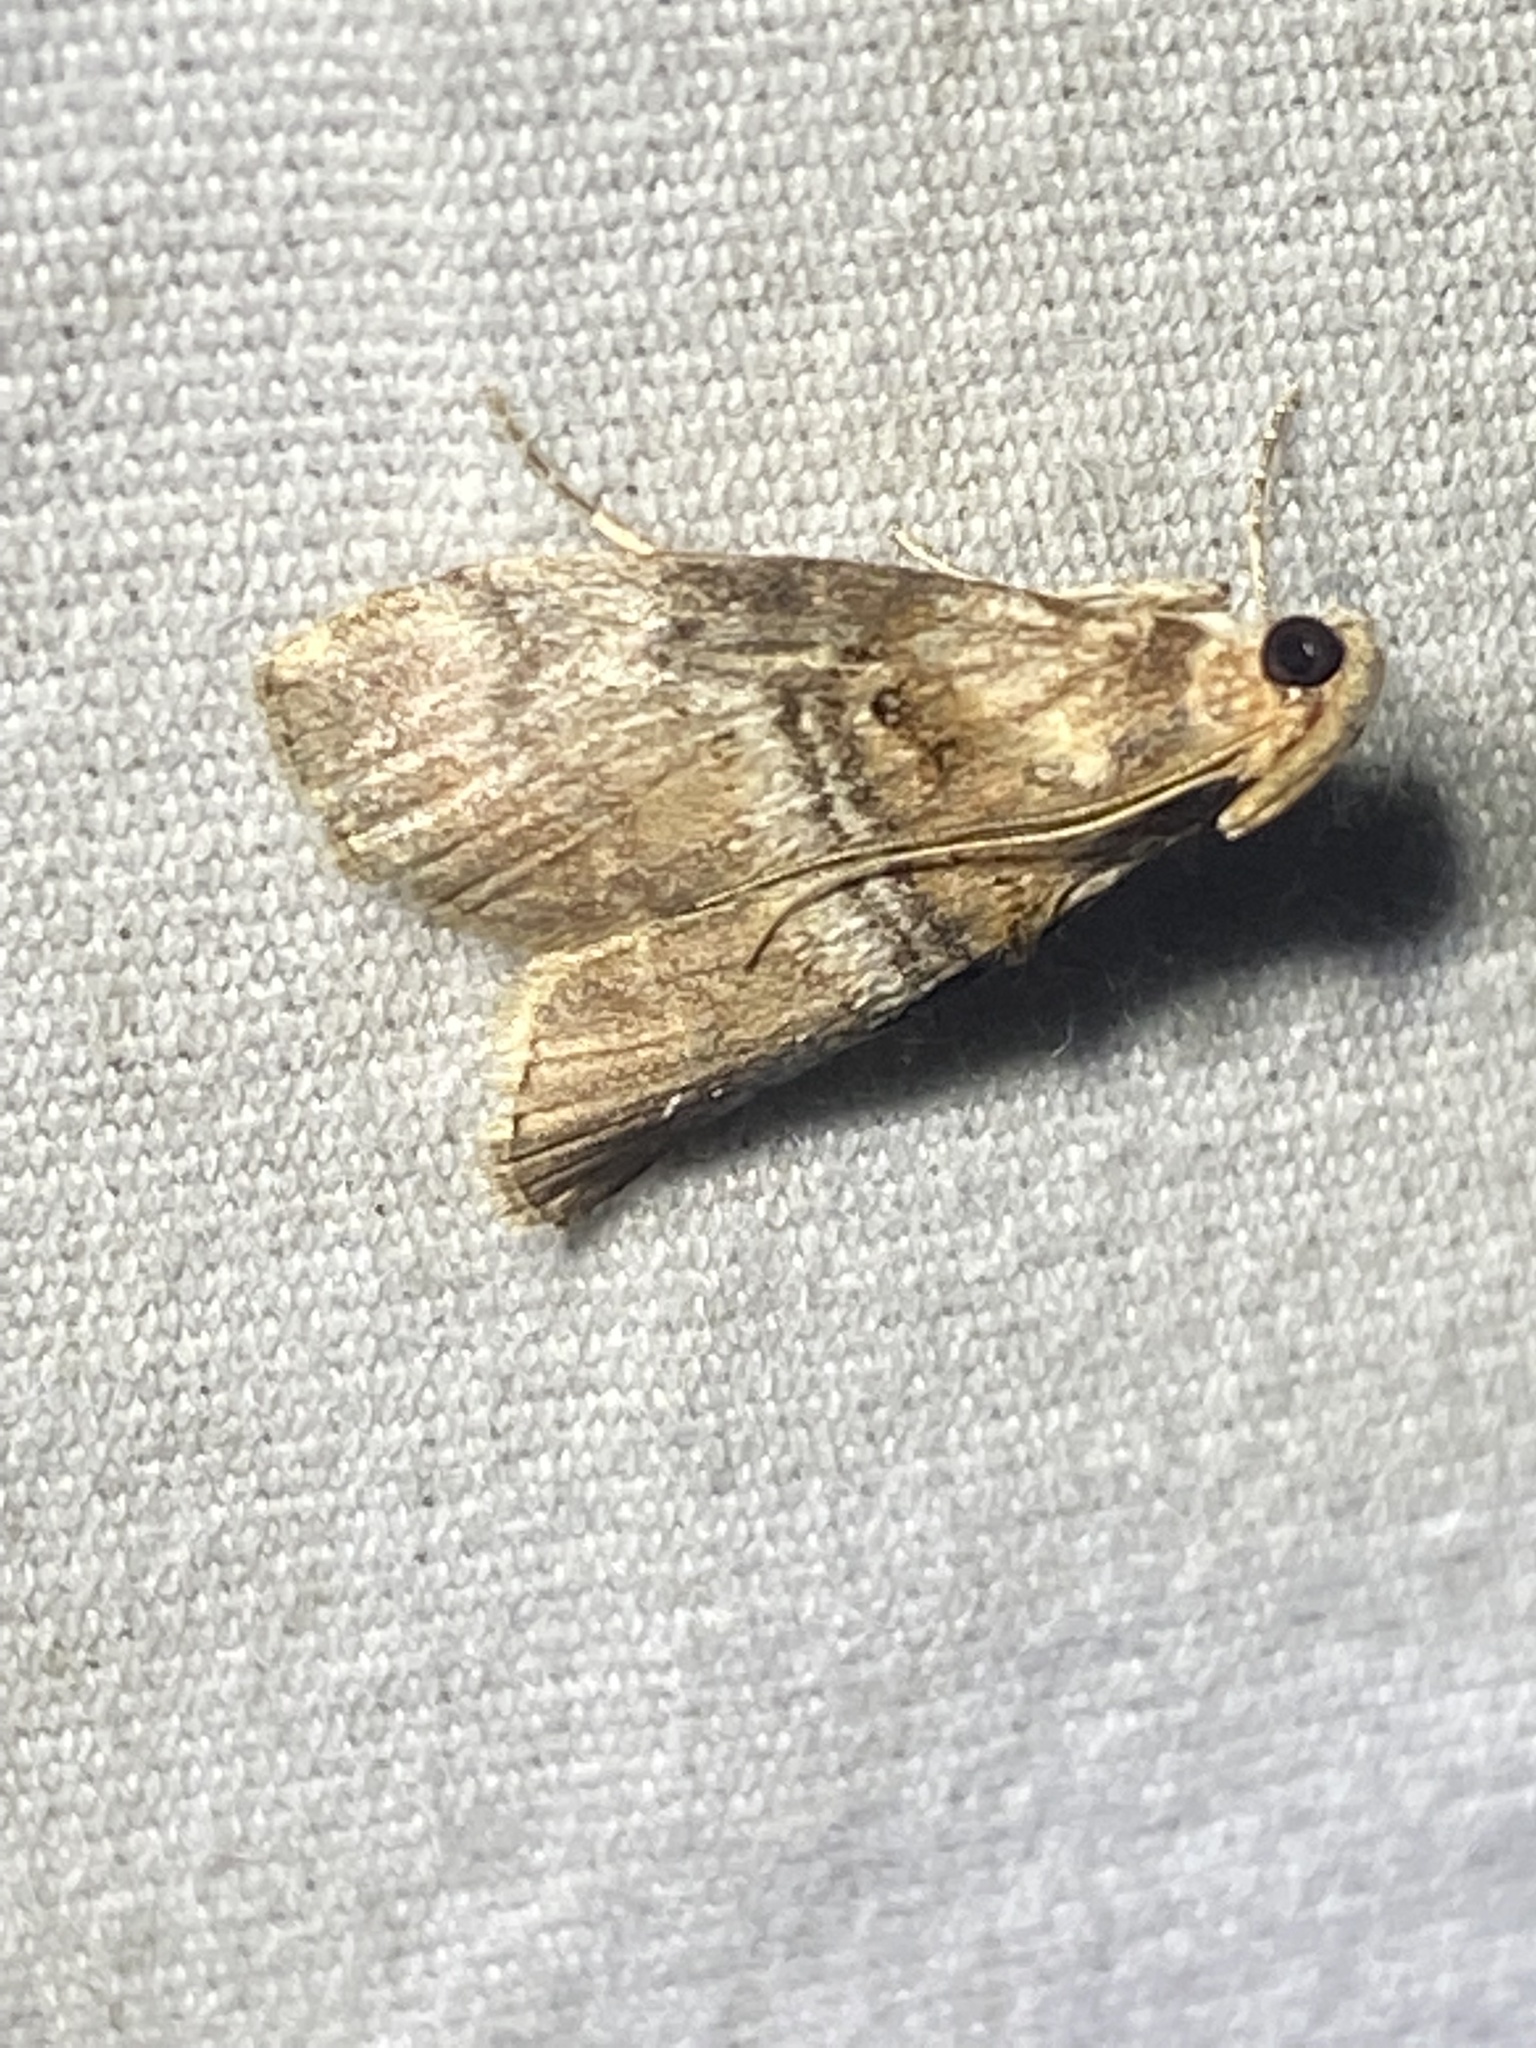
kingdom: Animalia
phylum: Arthropoda
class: Insecta
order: Lepidoptera
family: Pyralidae
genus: Pococera
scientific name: Pococera militella
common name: Sycamore webworm moth
